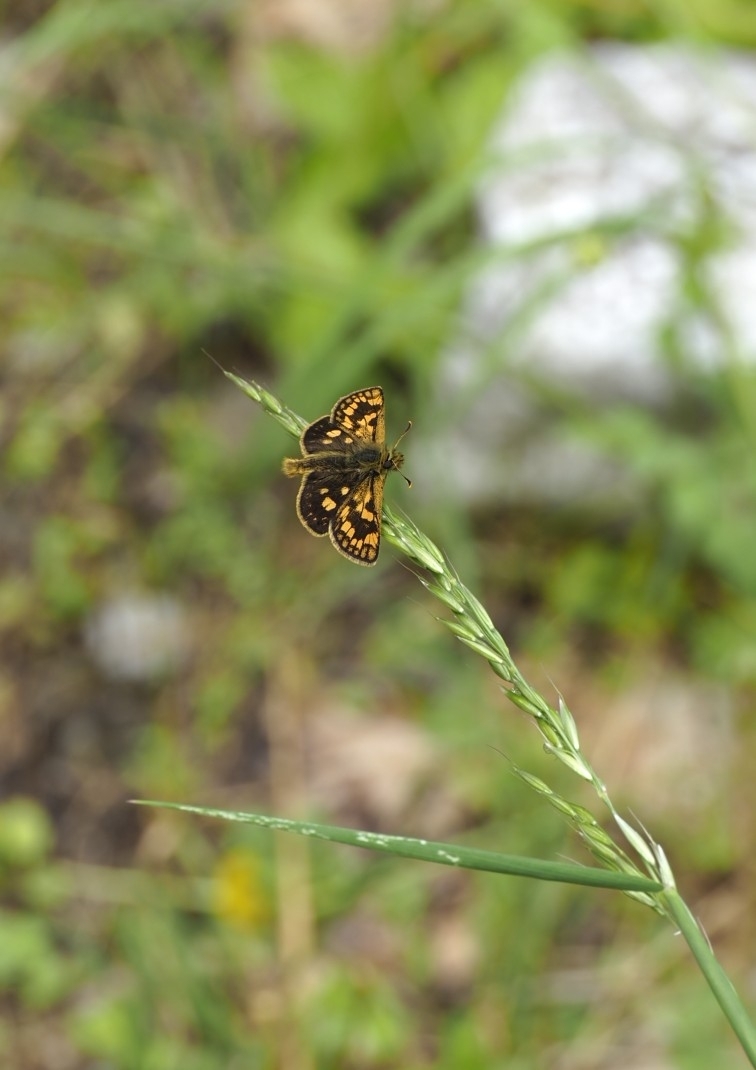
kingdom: Animalia
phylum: Arthropoda
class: Insecta
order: Lepidoptera
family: Hesperiidae
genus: Carterocephalus
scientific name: Carterocephalus palaemon
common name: Chequered skipper
